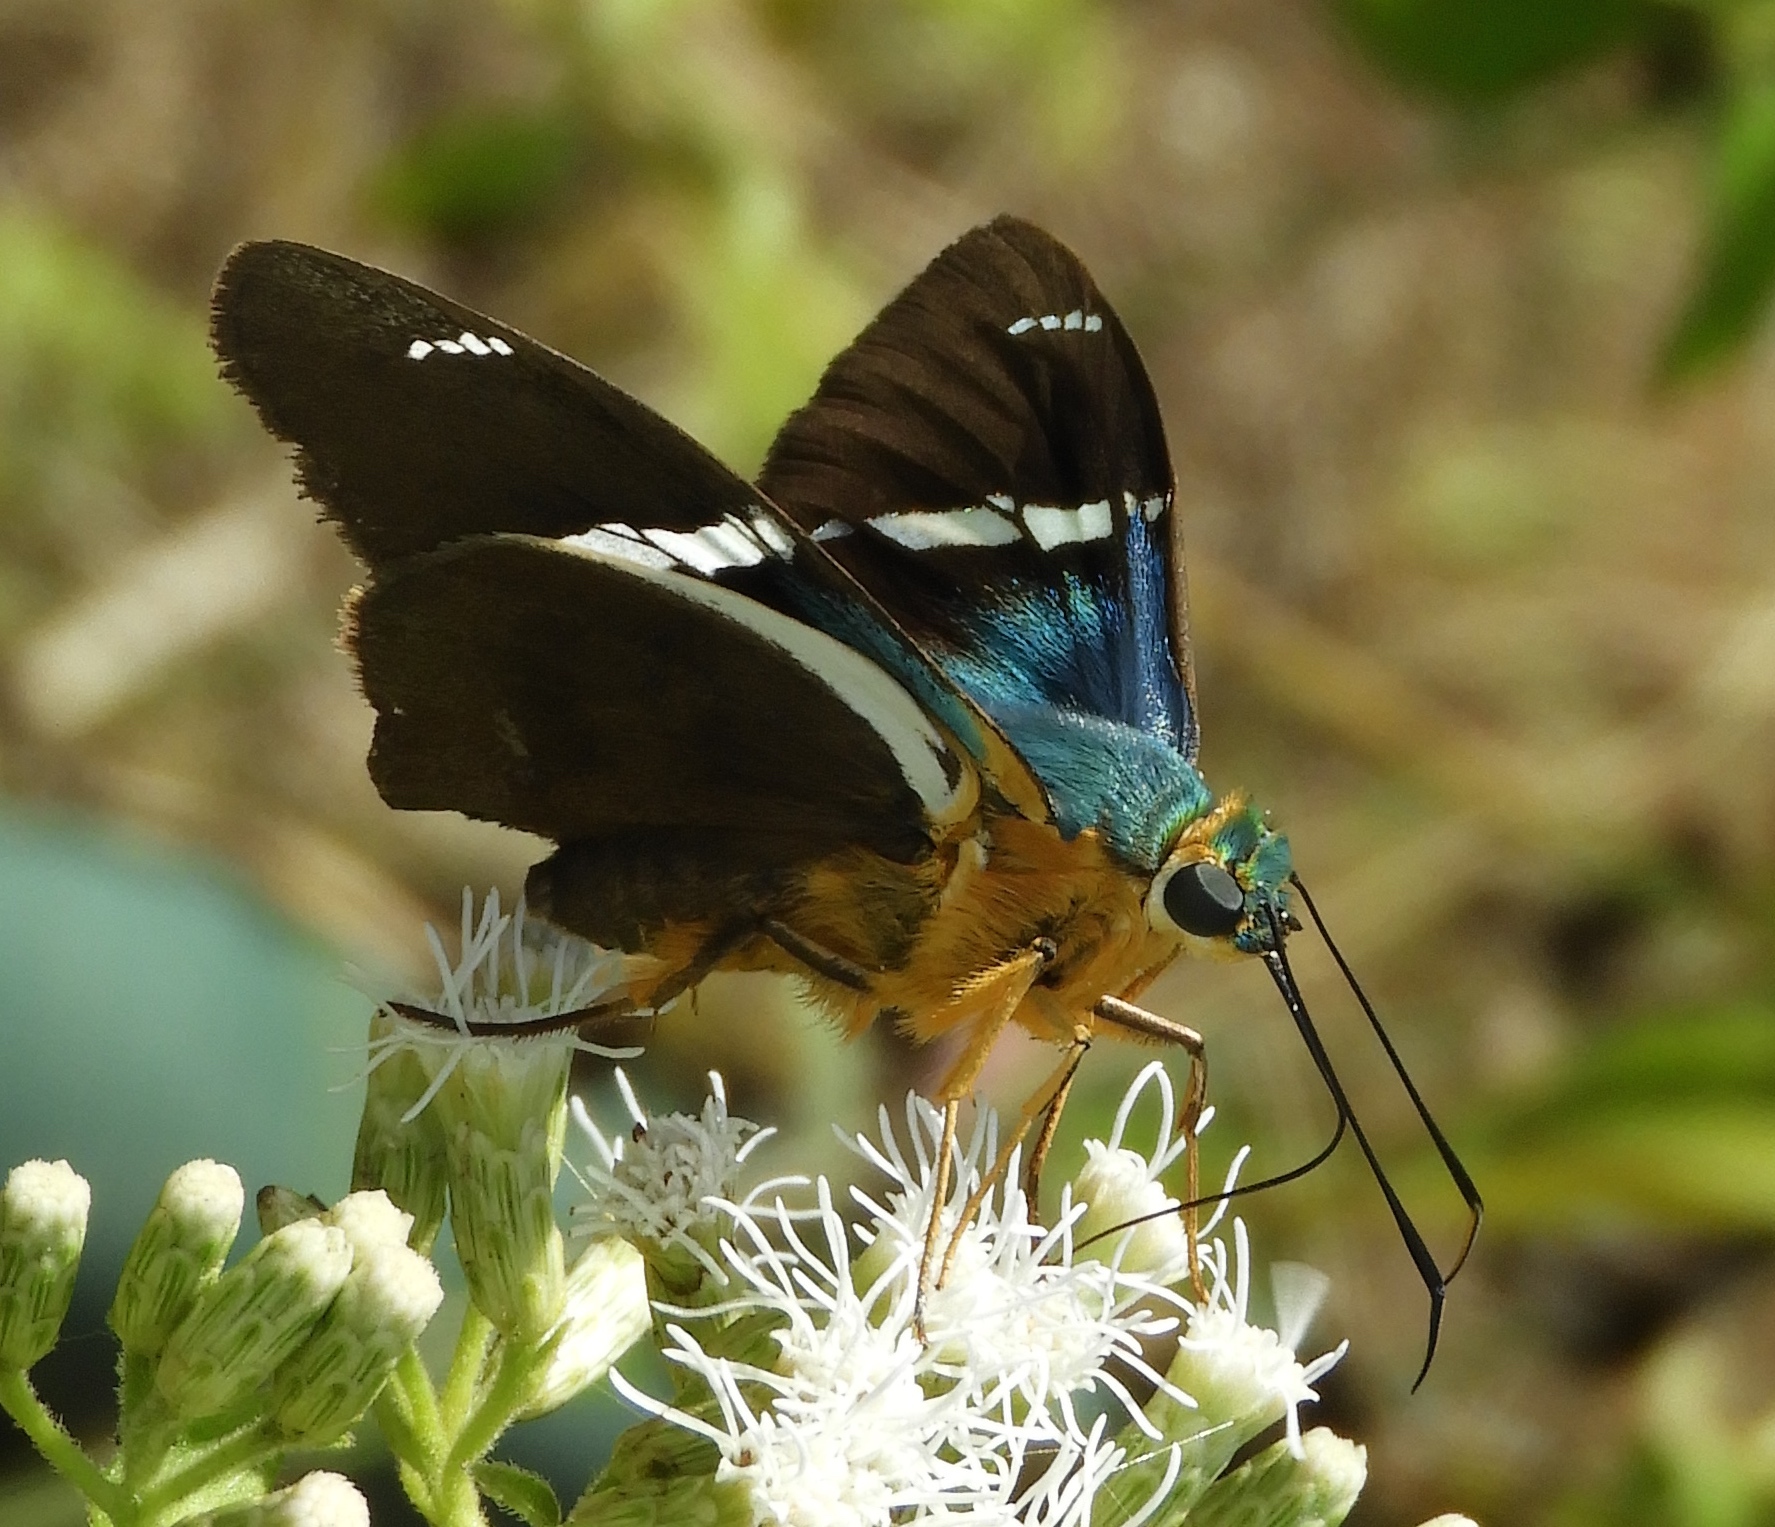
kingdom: Animalia
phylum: Arthropoda
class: Insecta
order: Lepidoptera
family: Hesperiidae
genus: Astraptes
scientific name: Astraptes fulgerator
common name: Two-barred flasher
